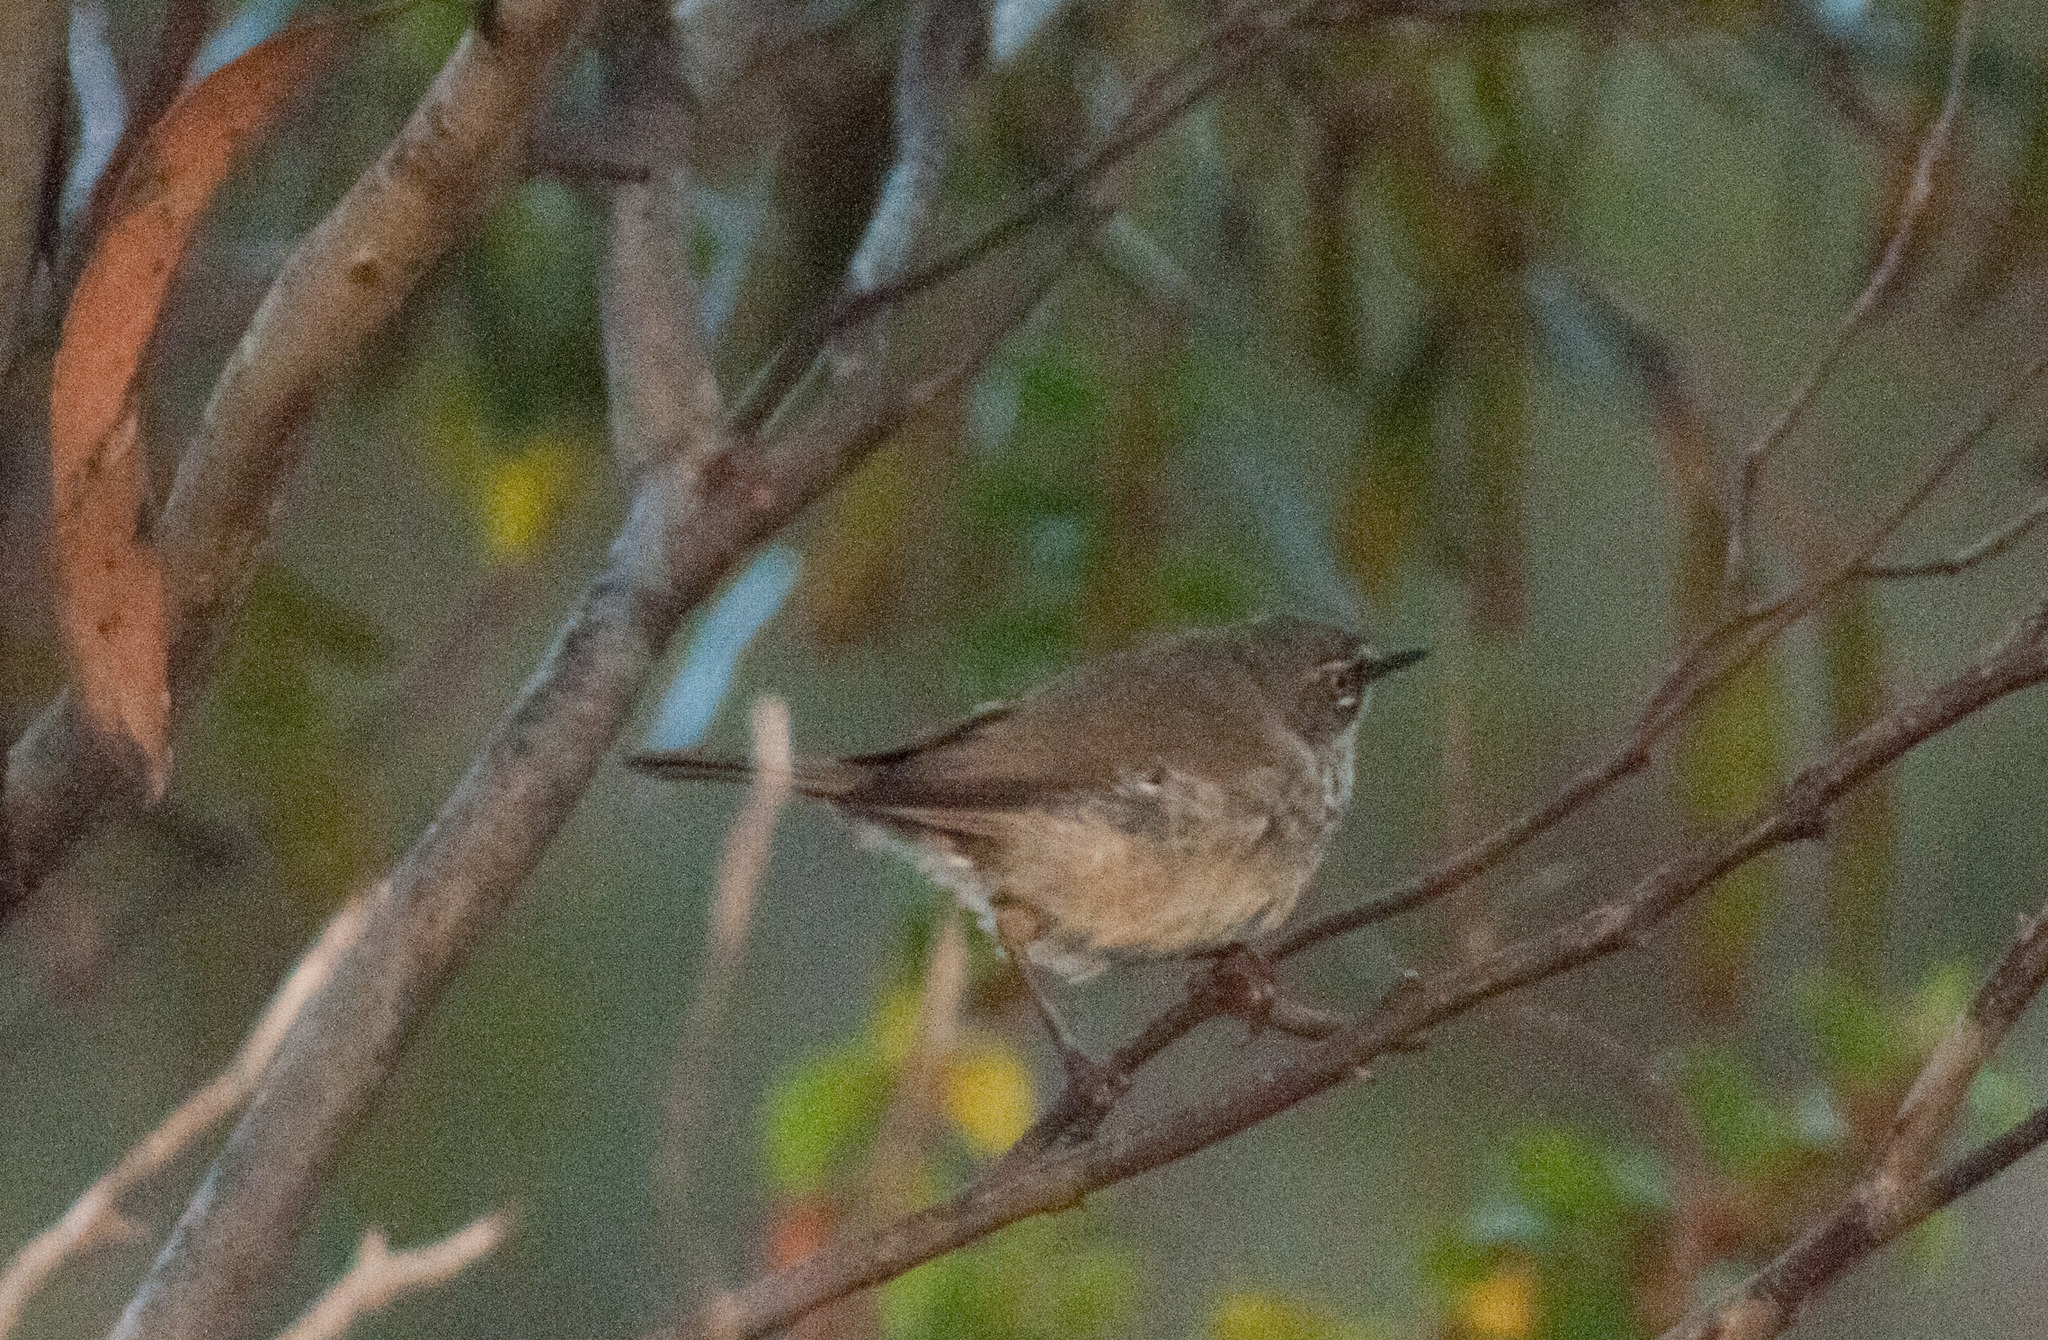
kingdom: Animalia
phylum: Chordata
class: Aves
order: Passeriformes
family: Acanthizidae
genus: Sericornis
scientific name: Sericornis maculatus
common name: Spotted scrubwren
